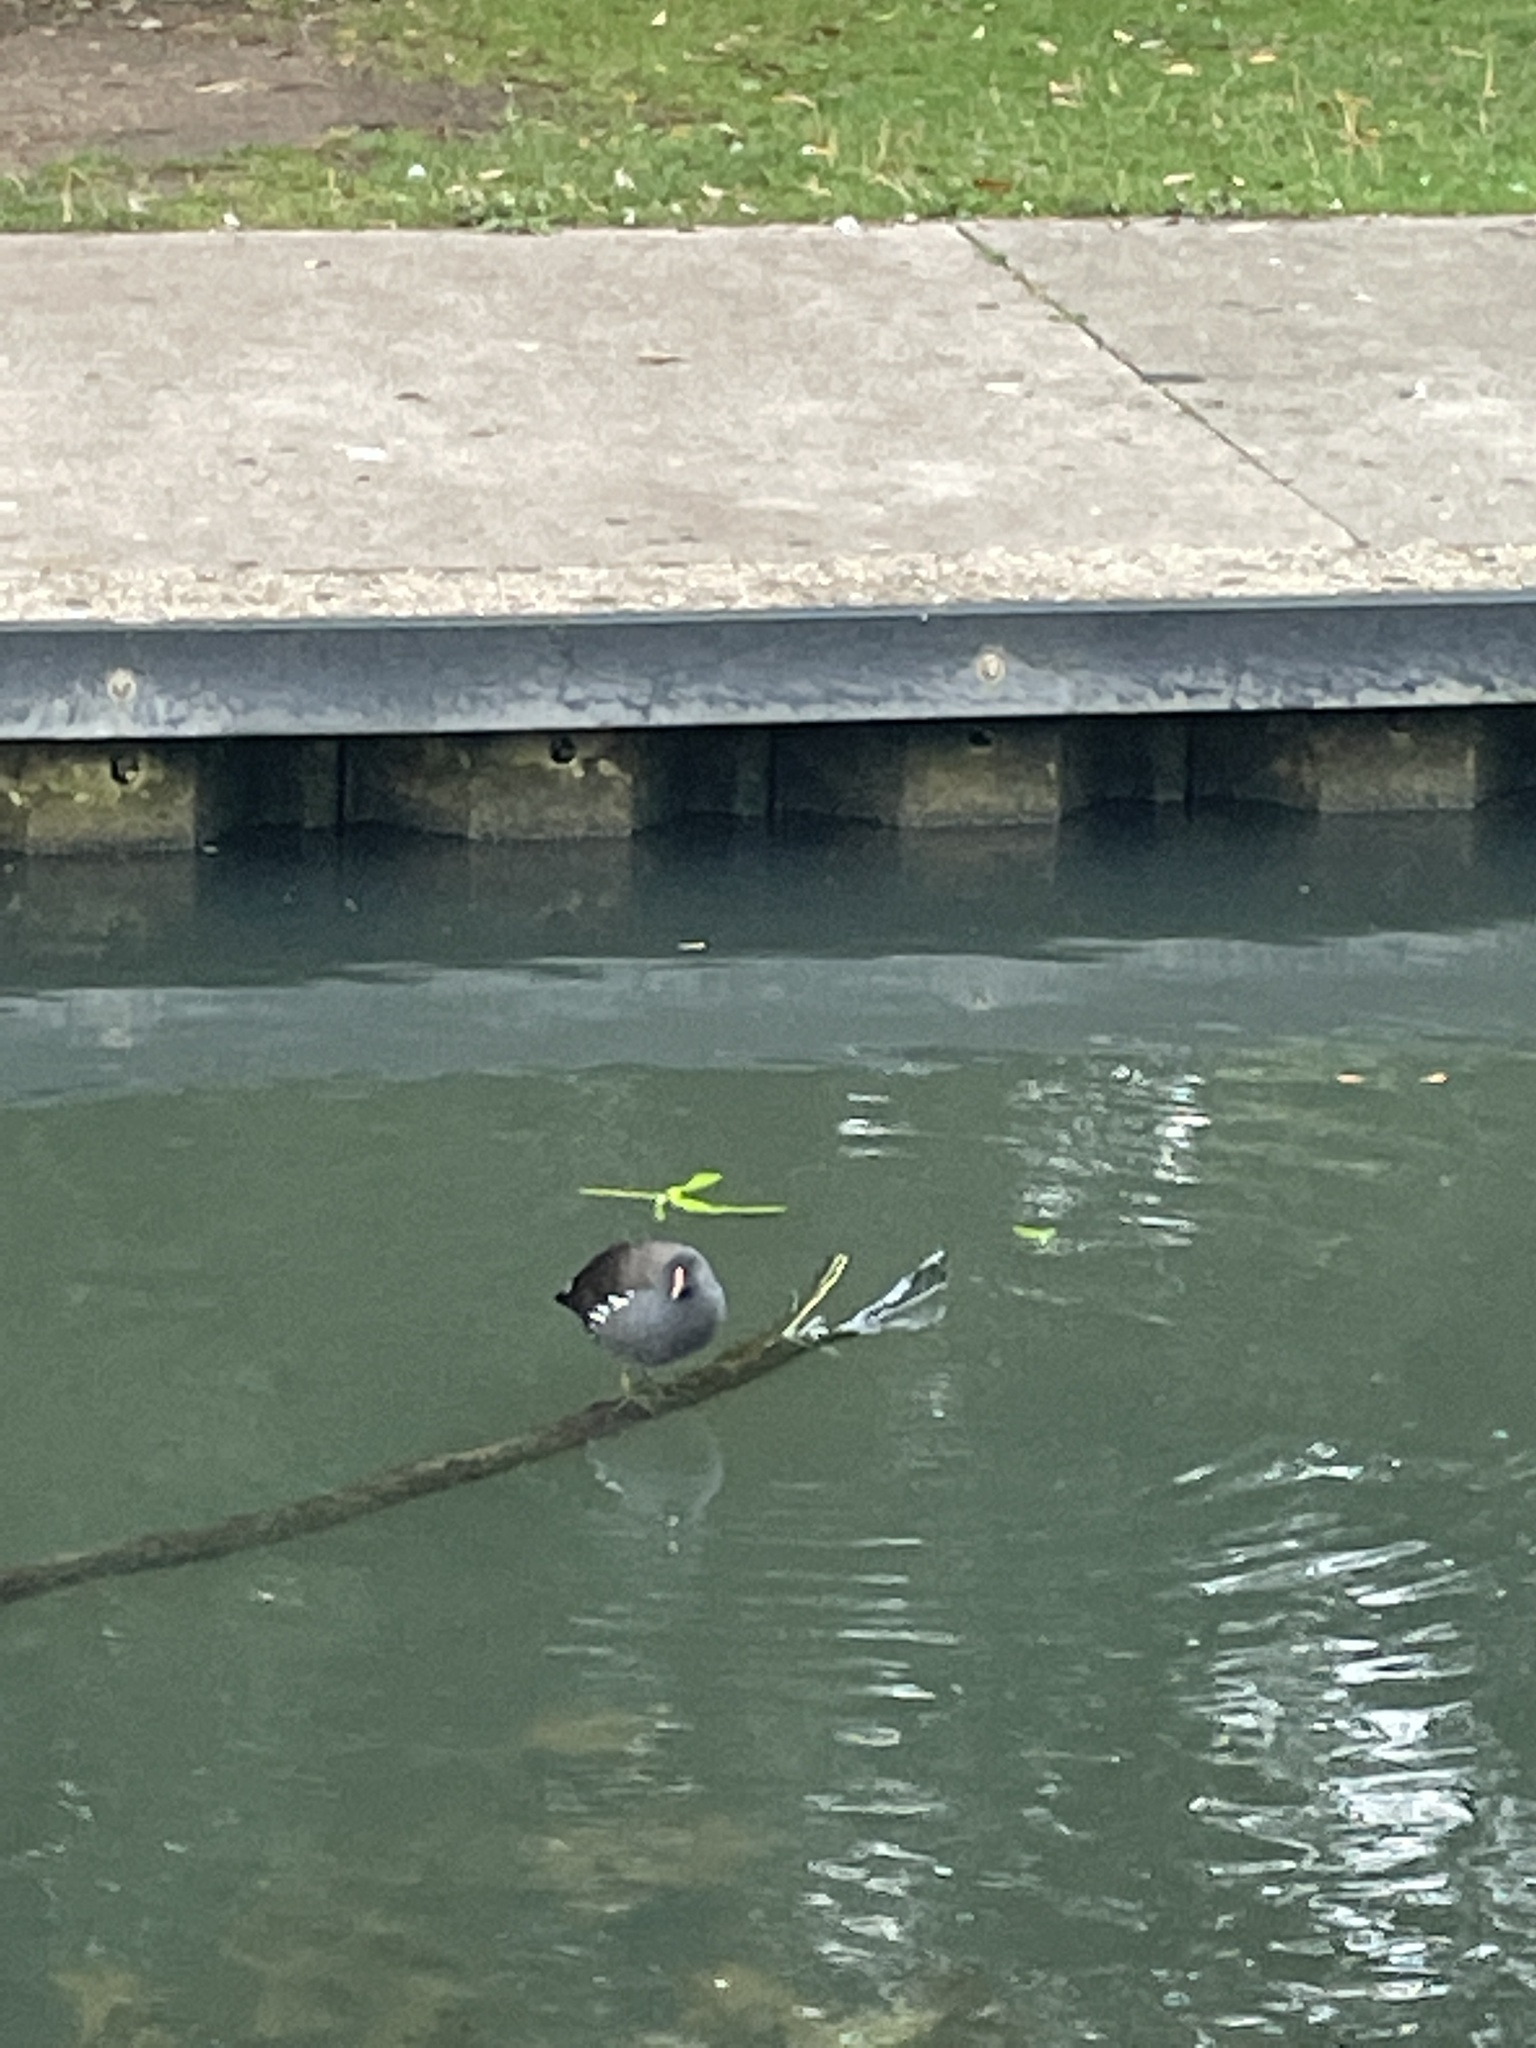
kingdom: Animalia
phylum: Chordata
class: Aves
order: Gruiformes
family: Rallidae
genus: Gallinula
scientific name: Gallinula chloropus
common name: Common moorhen
